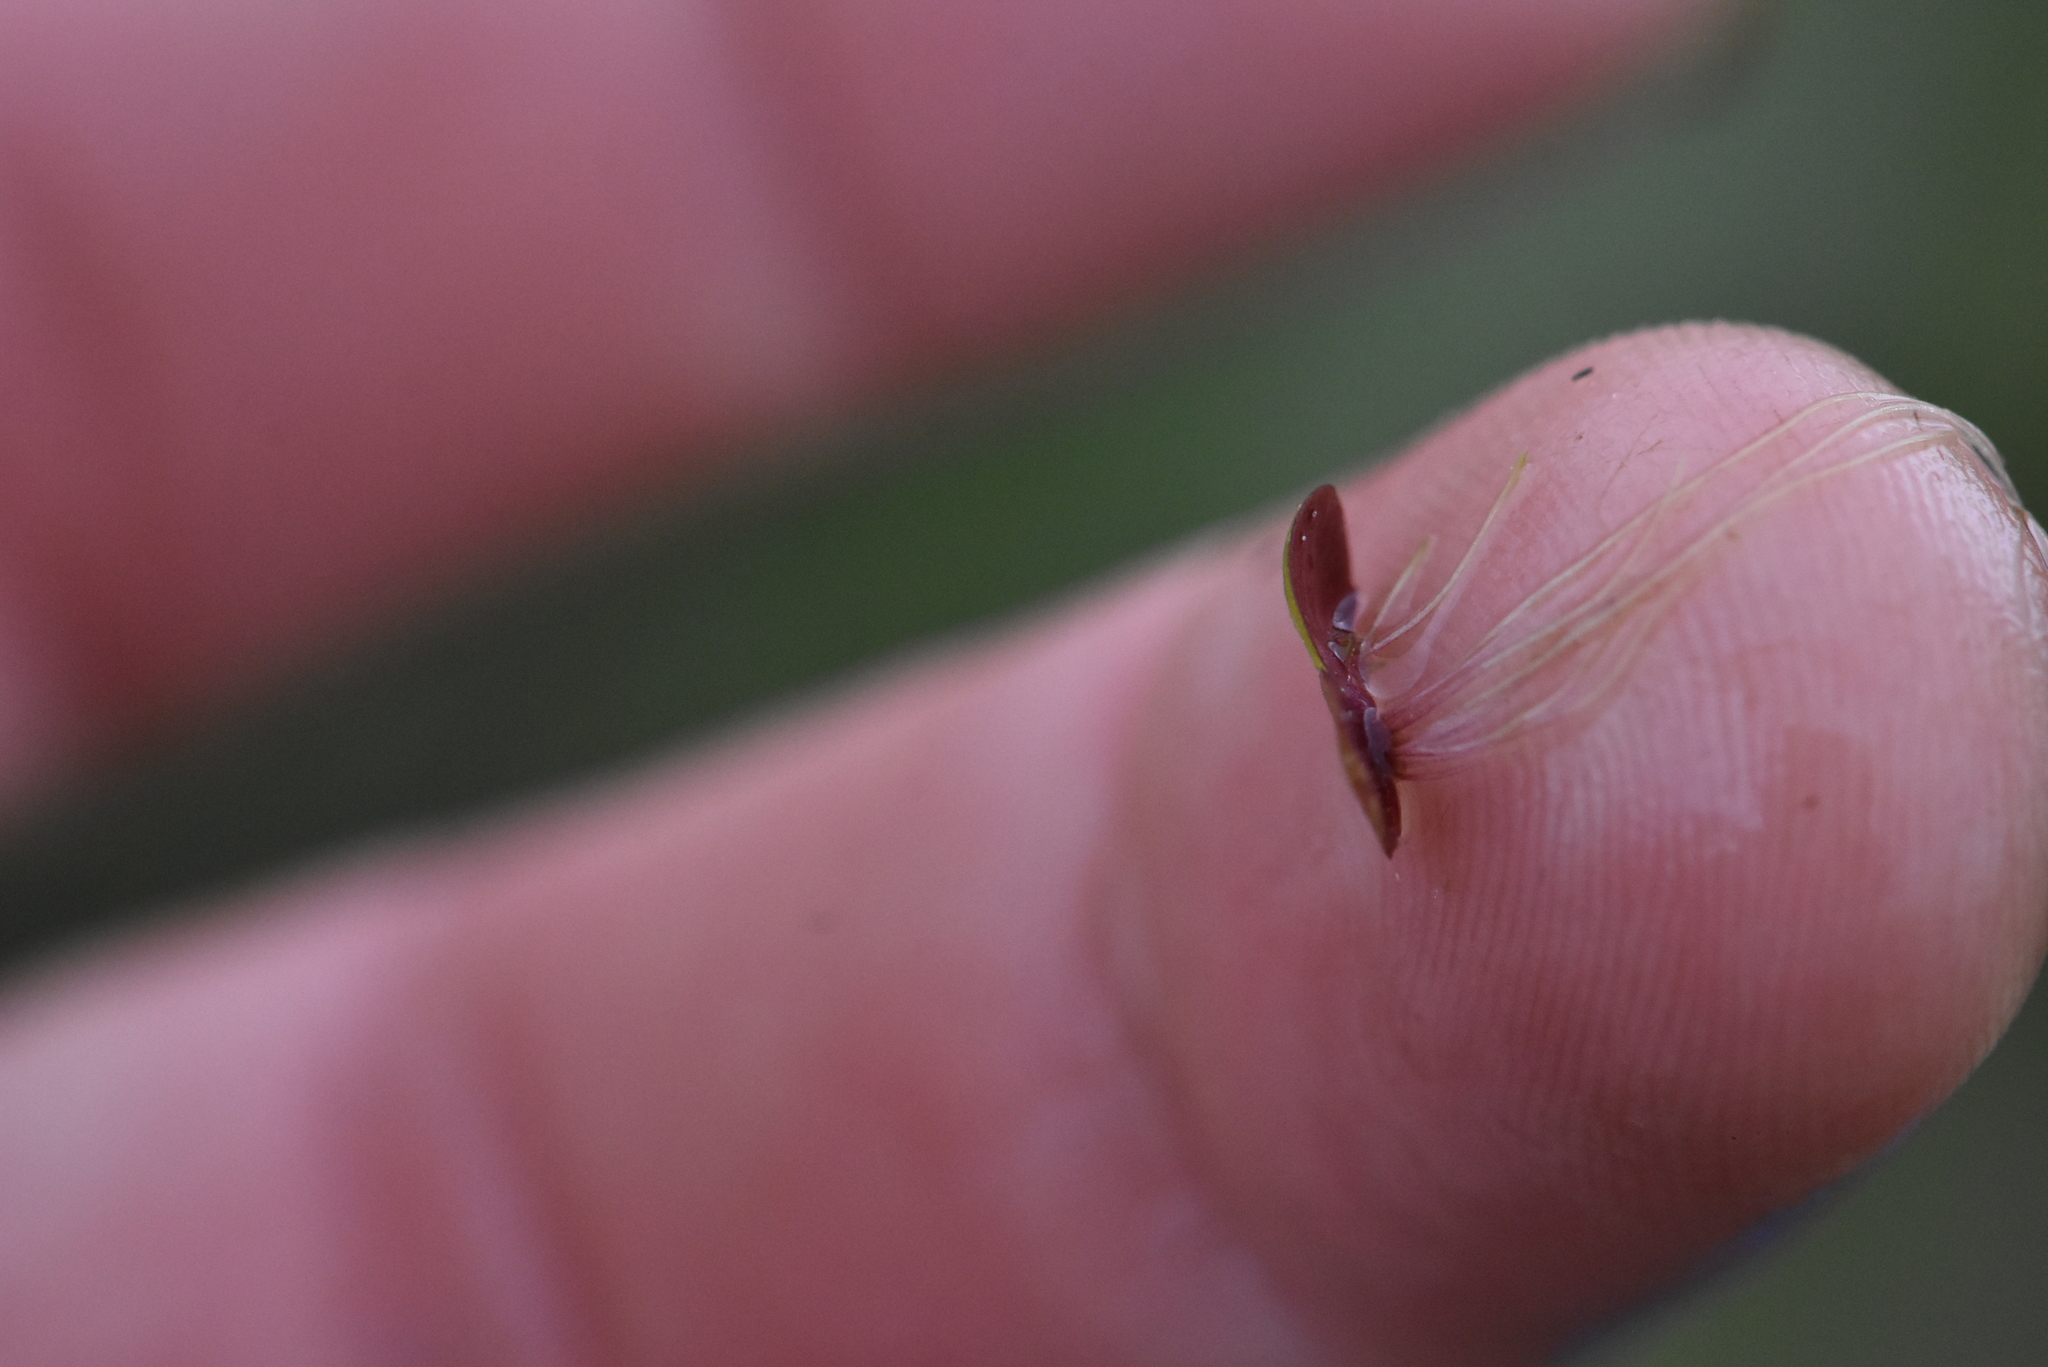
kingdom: Plantae
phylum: Tracheophyta
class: Liliopsida
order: Alismatales
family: Araceae
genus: Spirodela
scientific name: Spirodela polyrhiza
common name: Great duckweed
